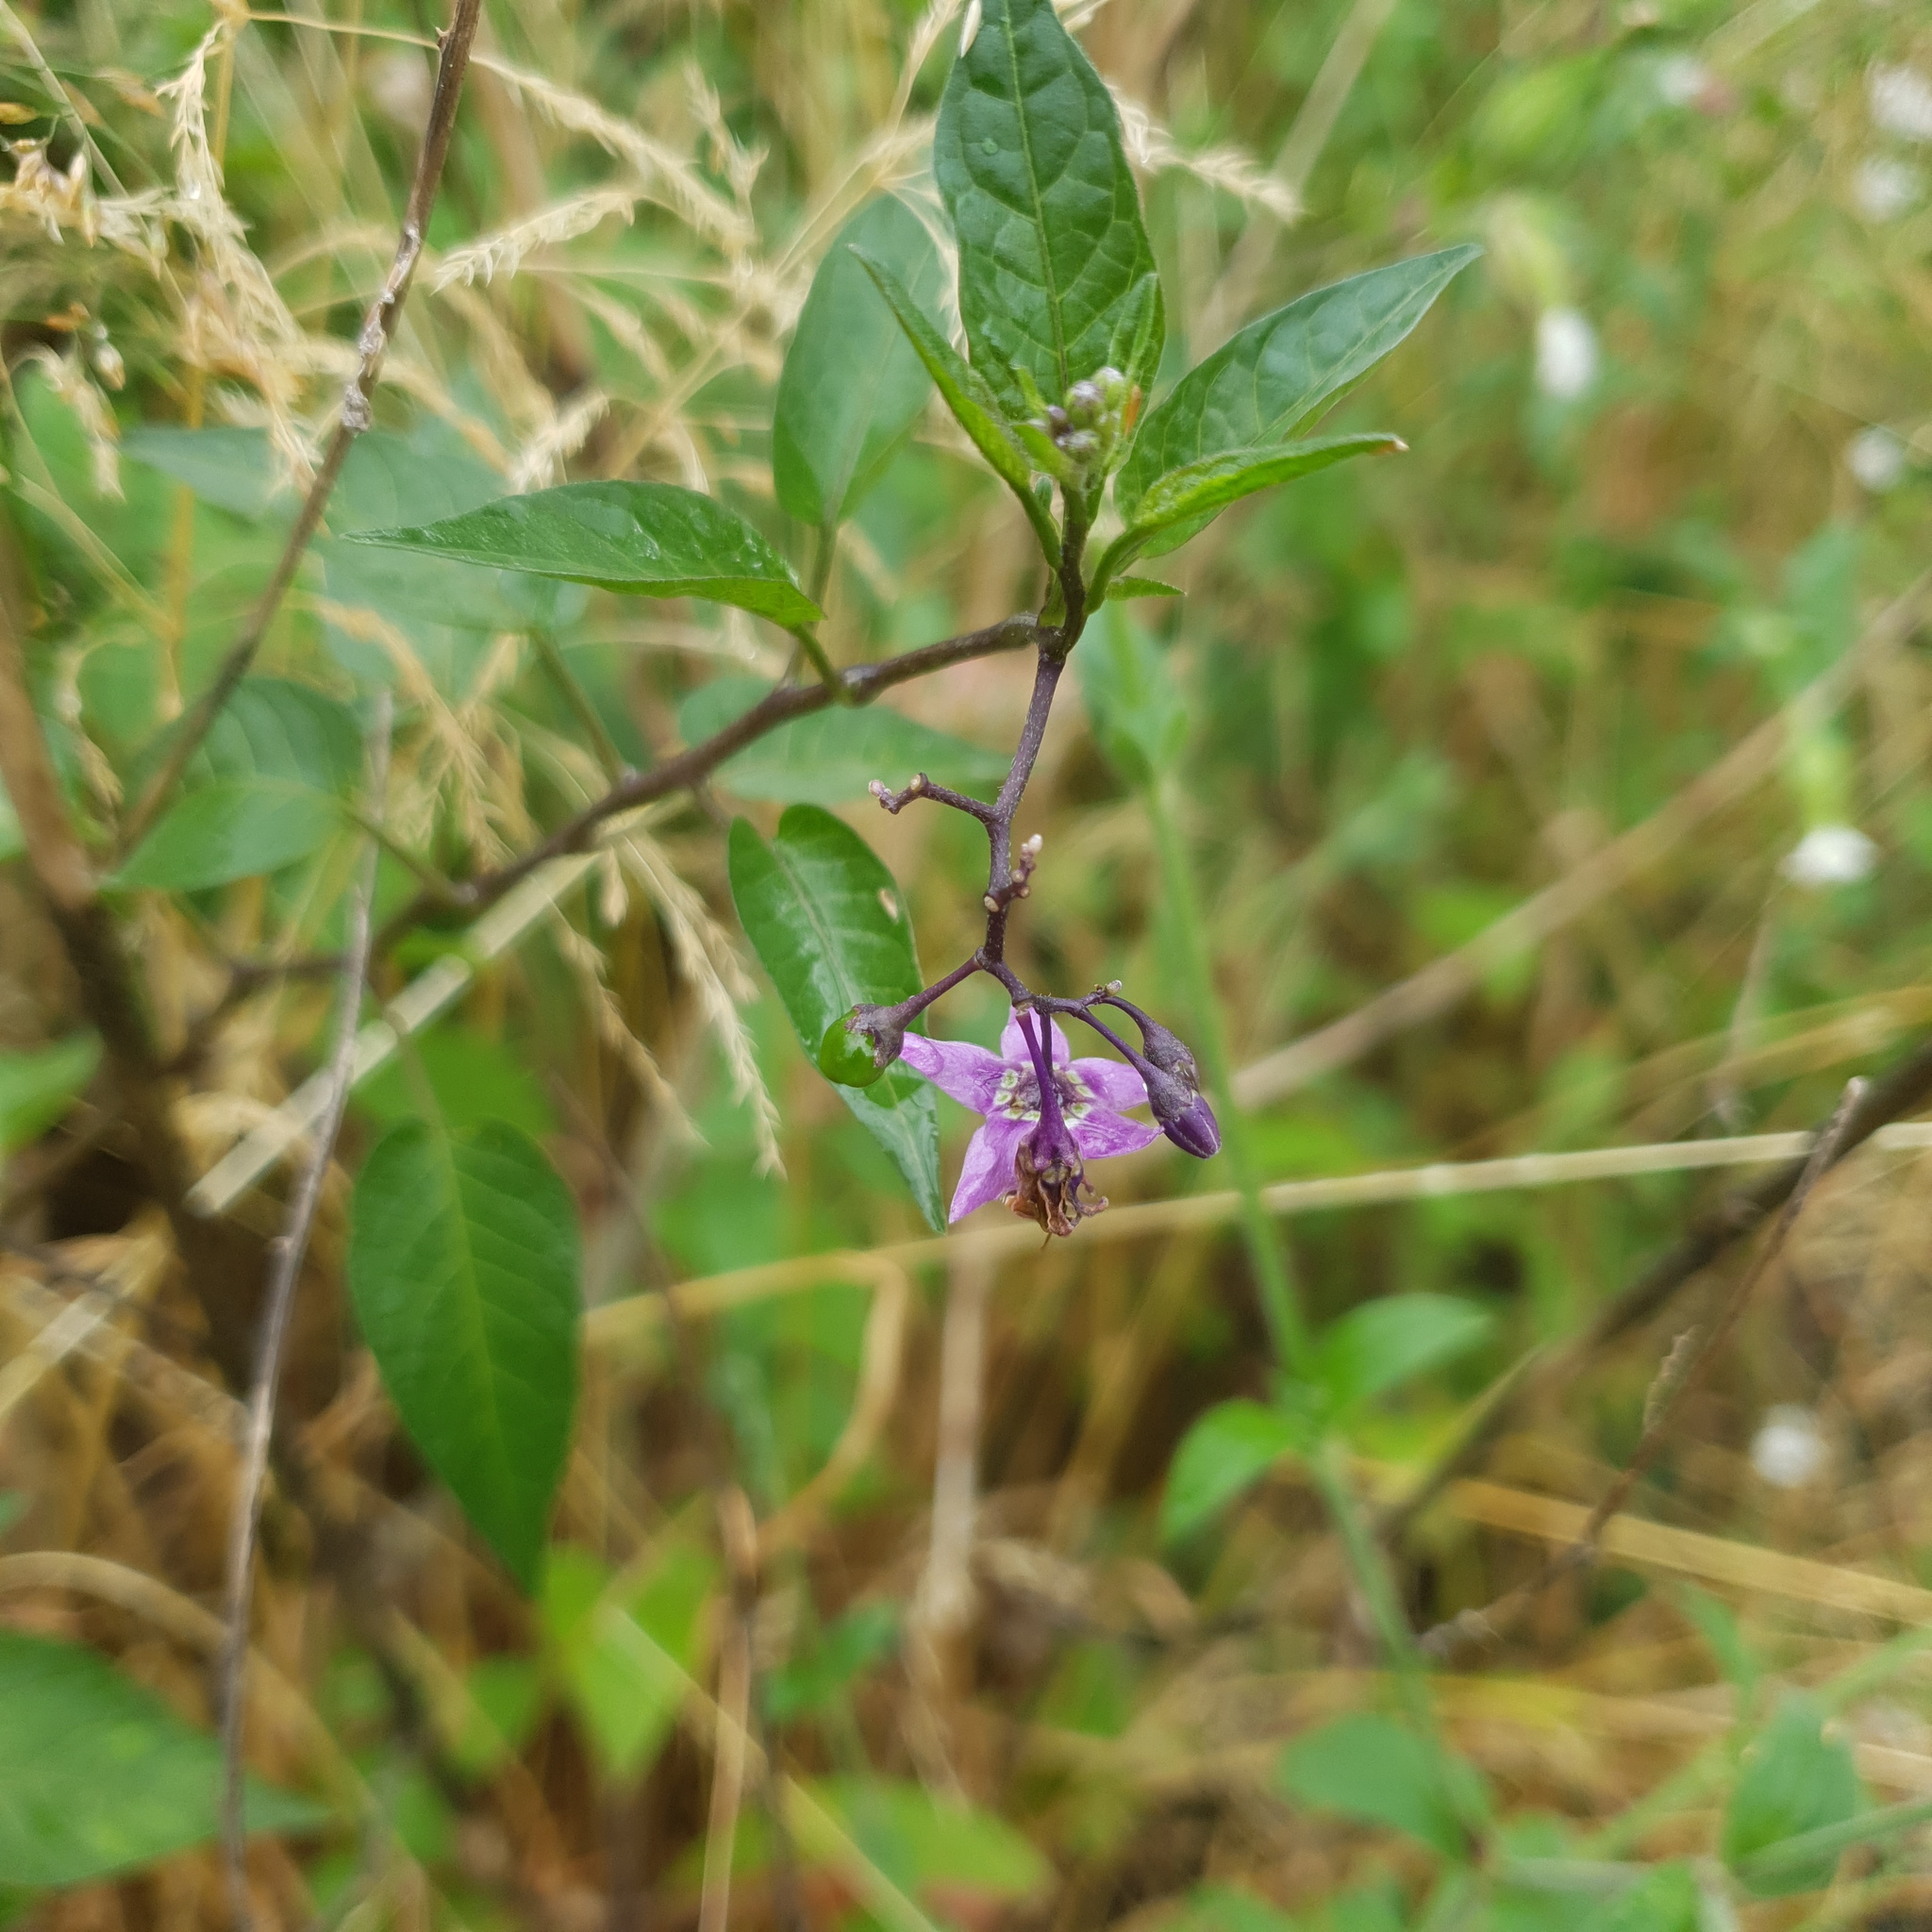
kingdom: Plantae
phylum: Tracheophyta
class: Magnoliopsida
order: Solanales
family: Solanaceae
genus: Solanum
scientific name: Solanum dulcamara
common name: Climbing nightshade
